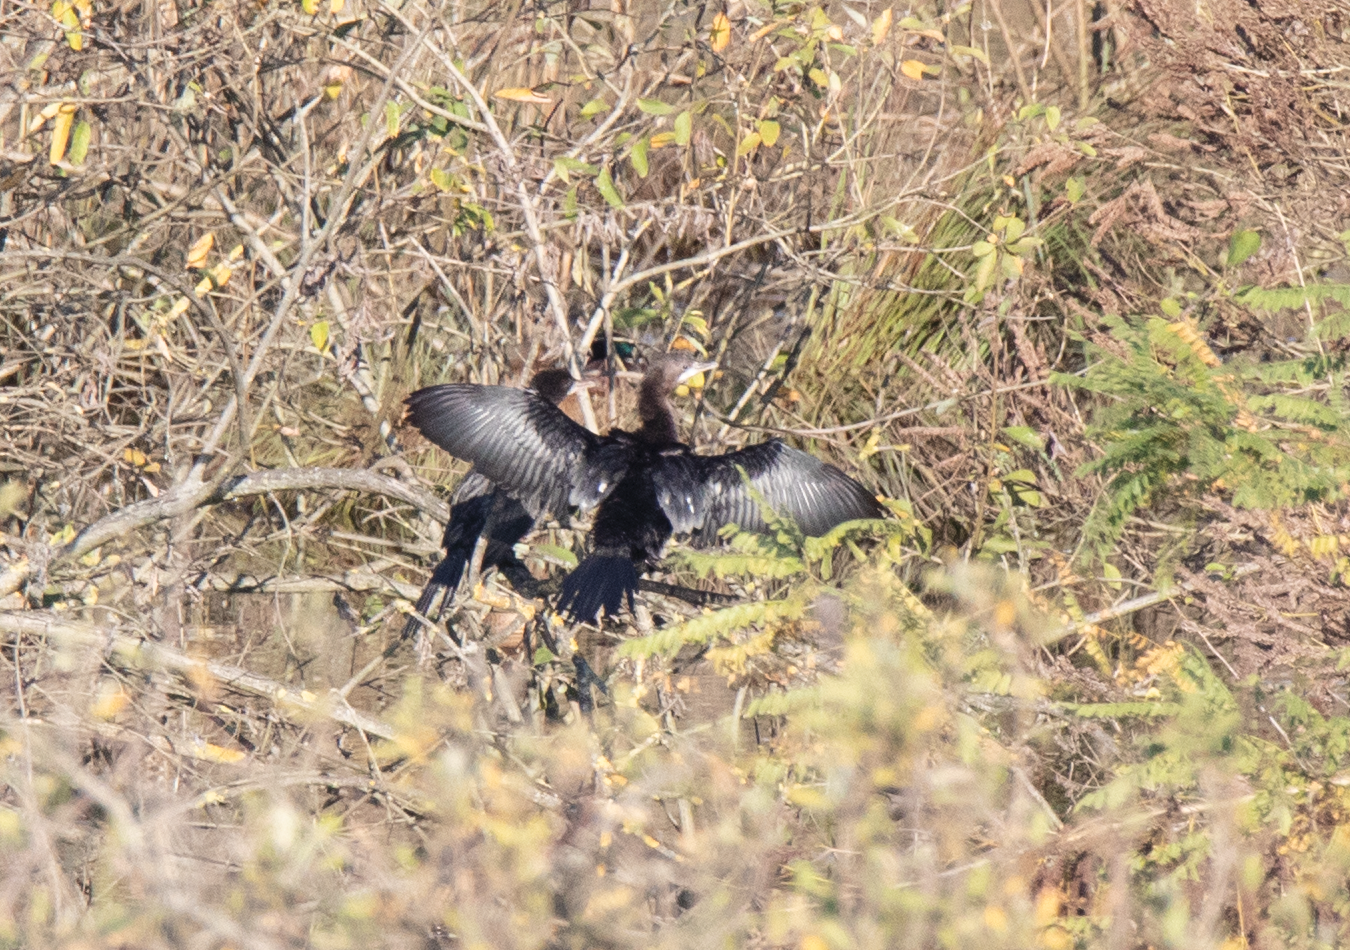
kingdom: Animalia
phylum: Chordata
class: Aves
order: Suliformes
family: Phalacrocoracidae
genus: Microcarbo
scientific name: Microcarbo pygmaeus
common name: Pygmy cormorant
